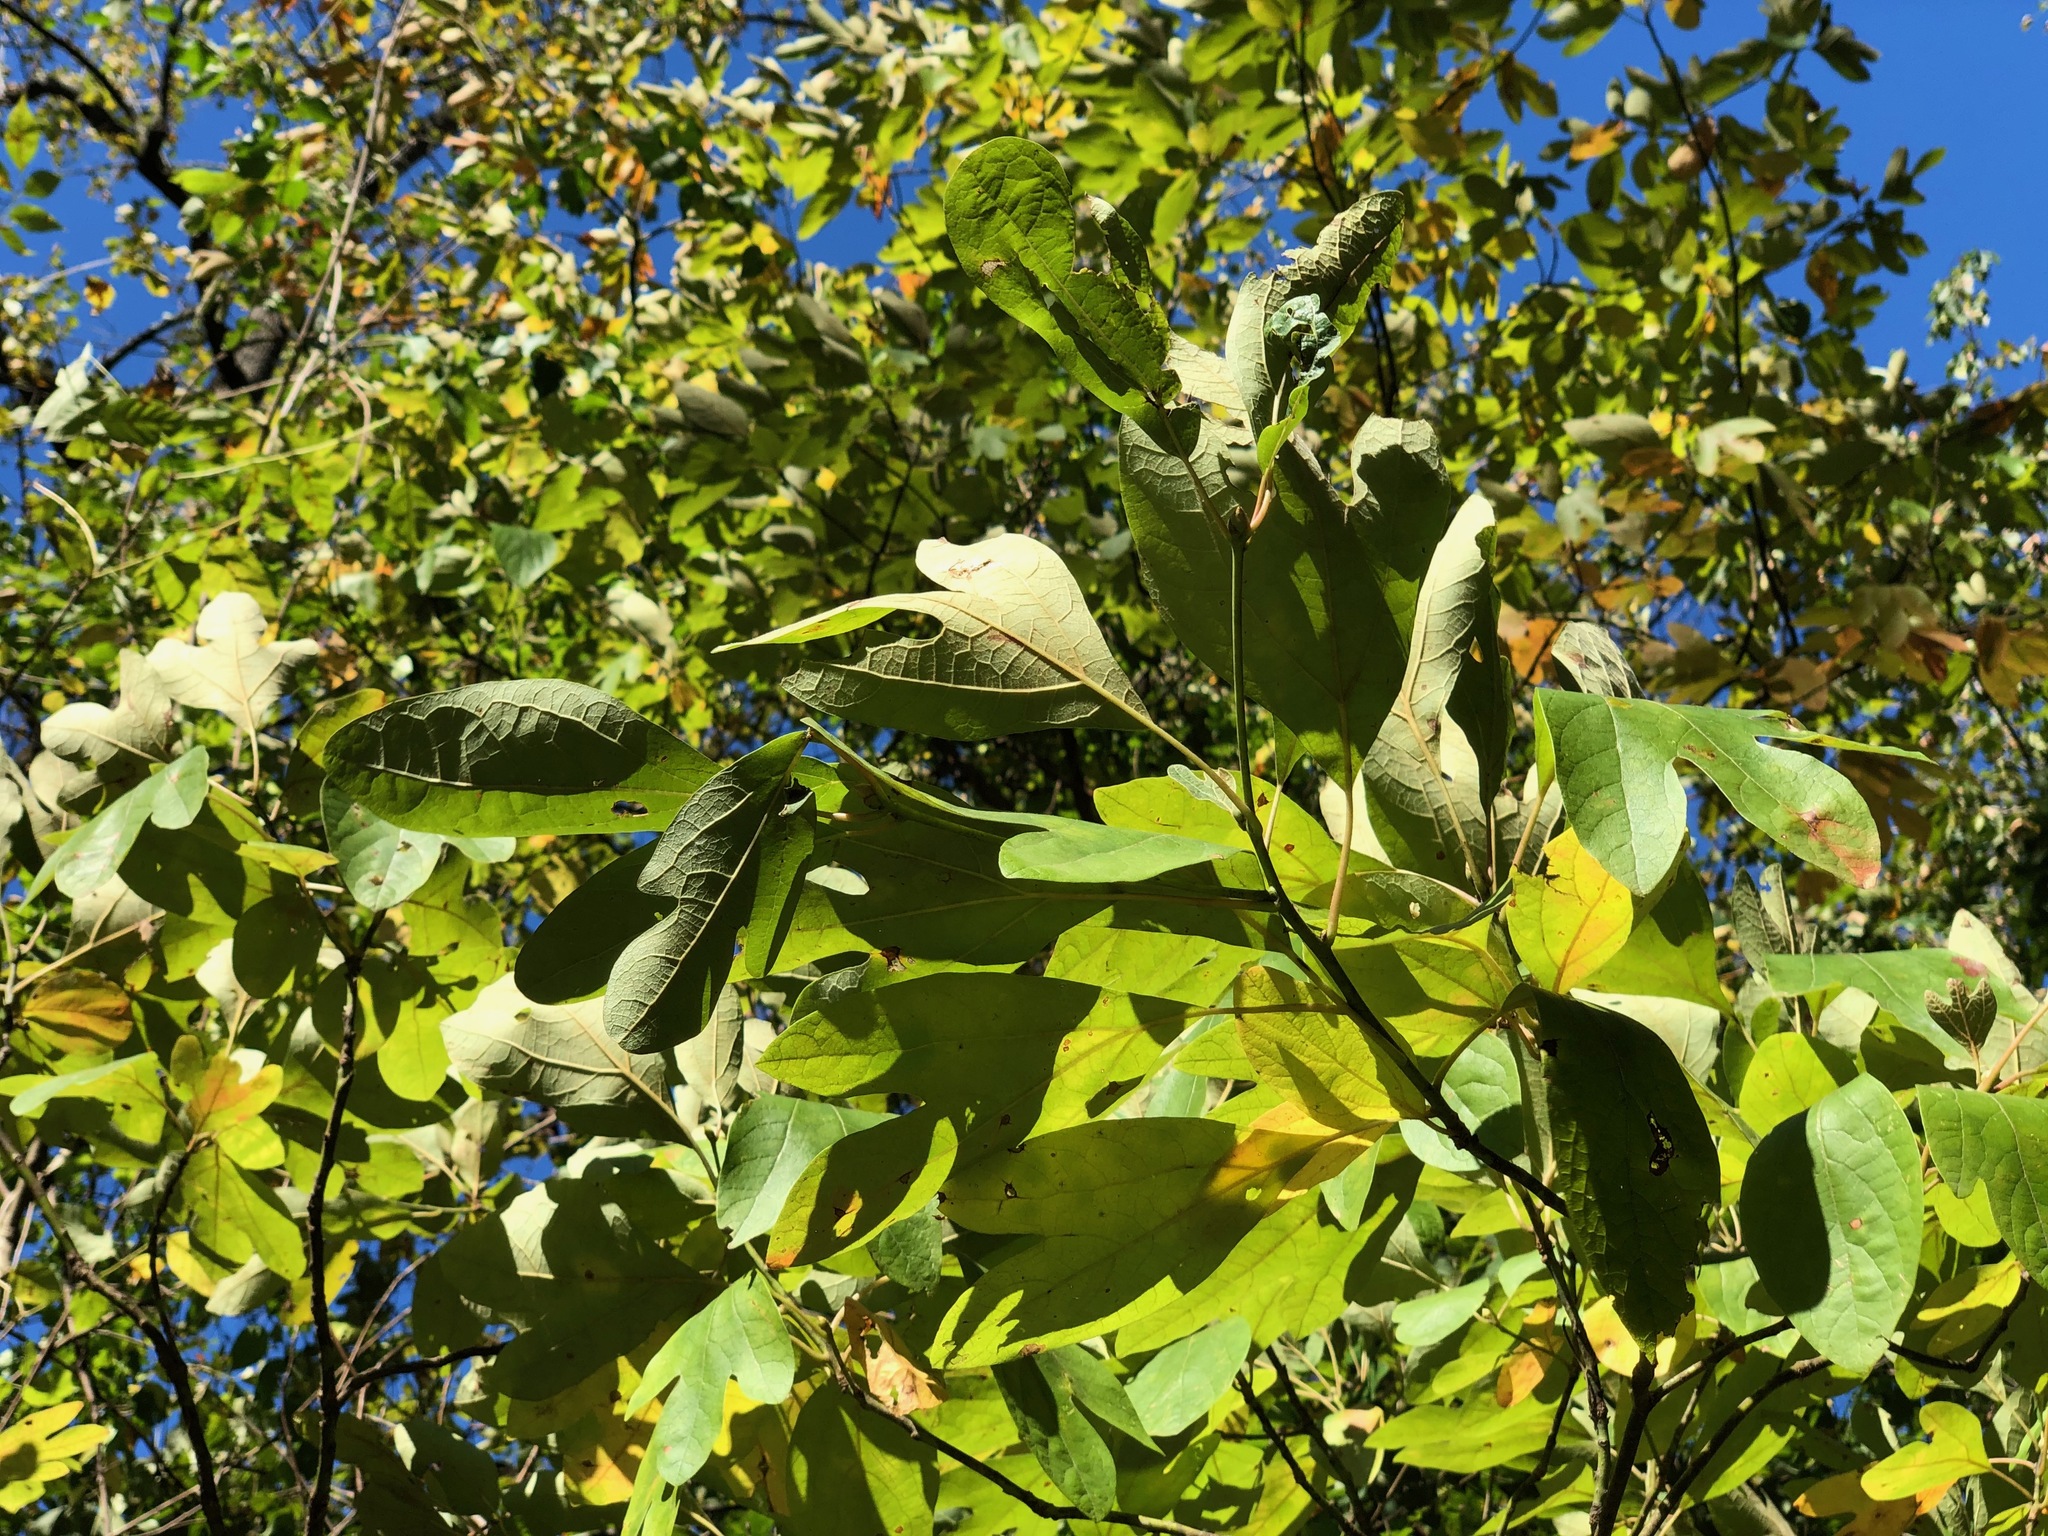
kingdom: Plantae
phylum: Tracheophyta
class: Magnoliopsida
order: Laurales
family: Lauraceae
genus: Sassafras
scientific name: Sassafras albidum
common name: Sassafras
